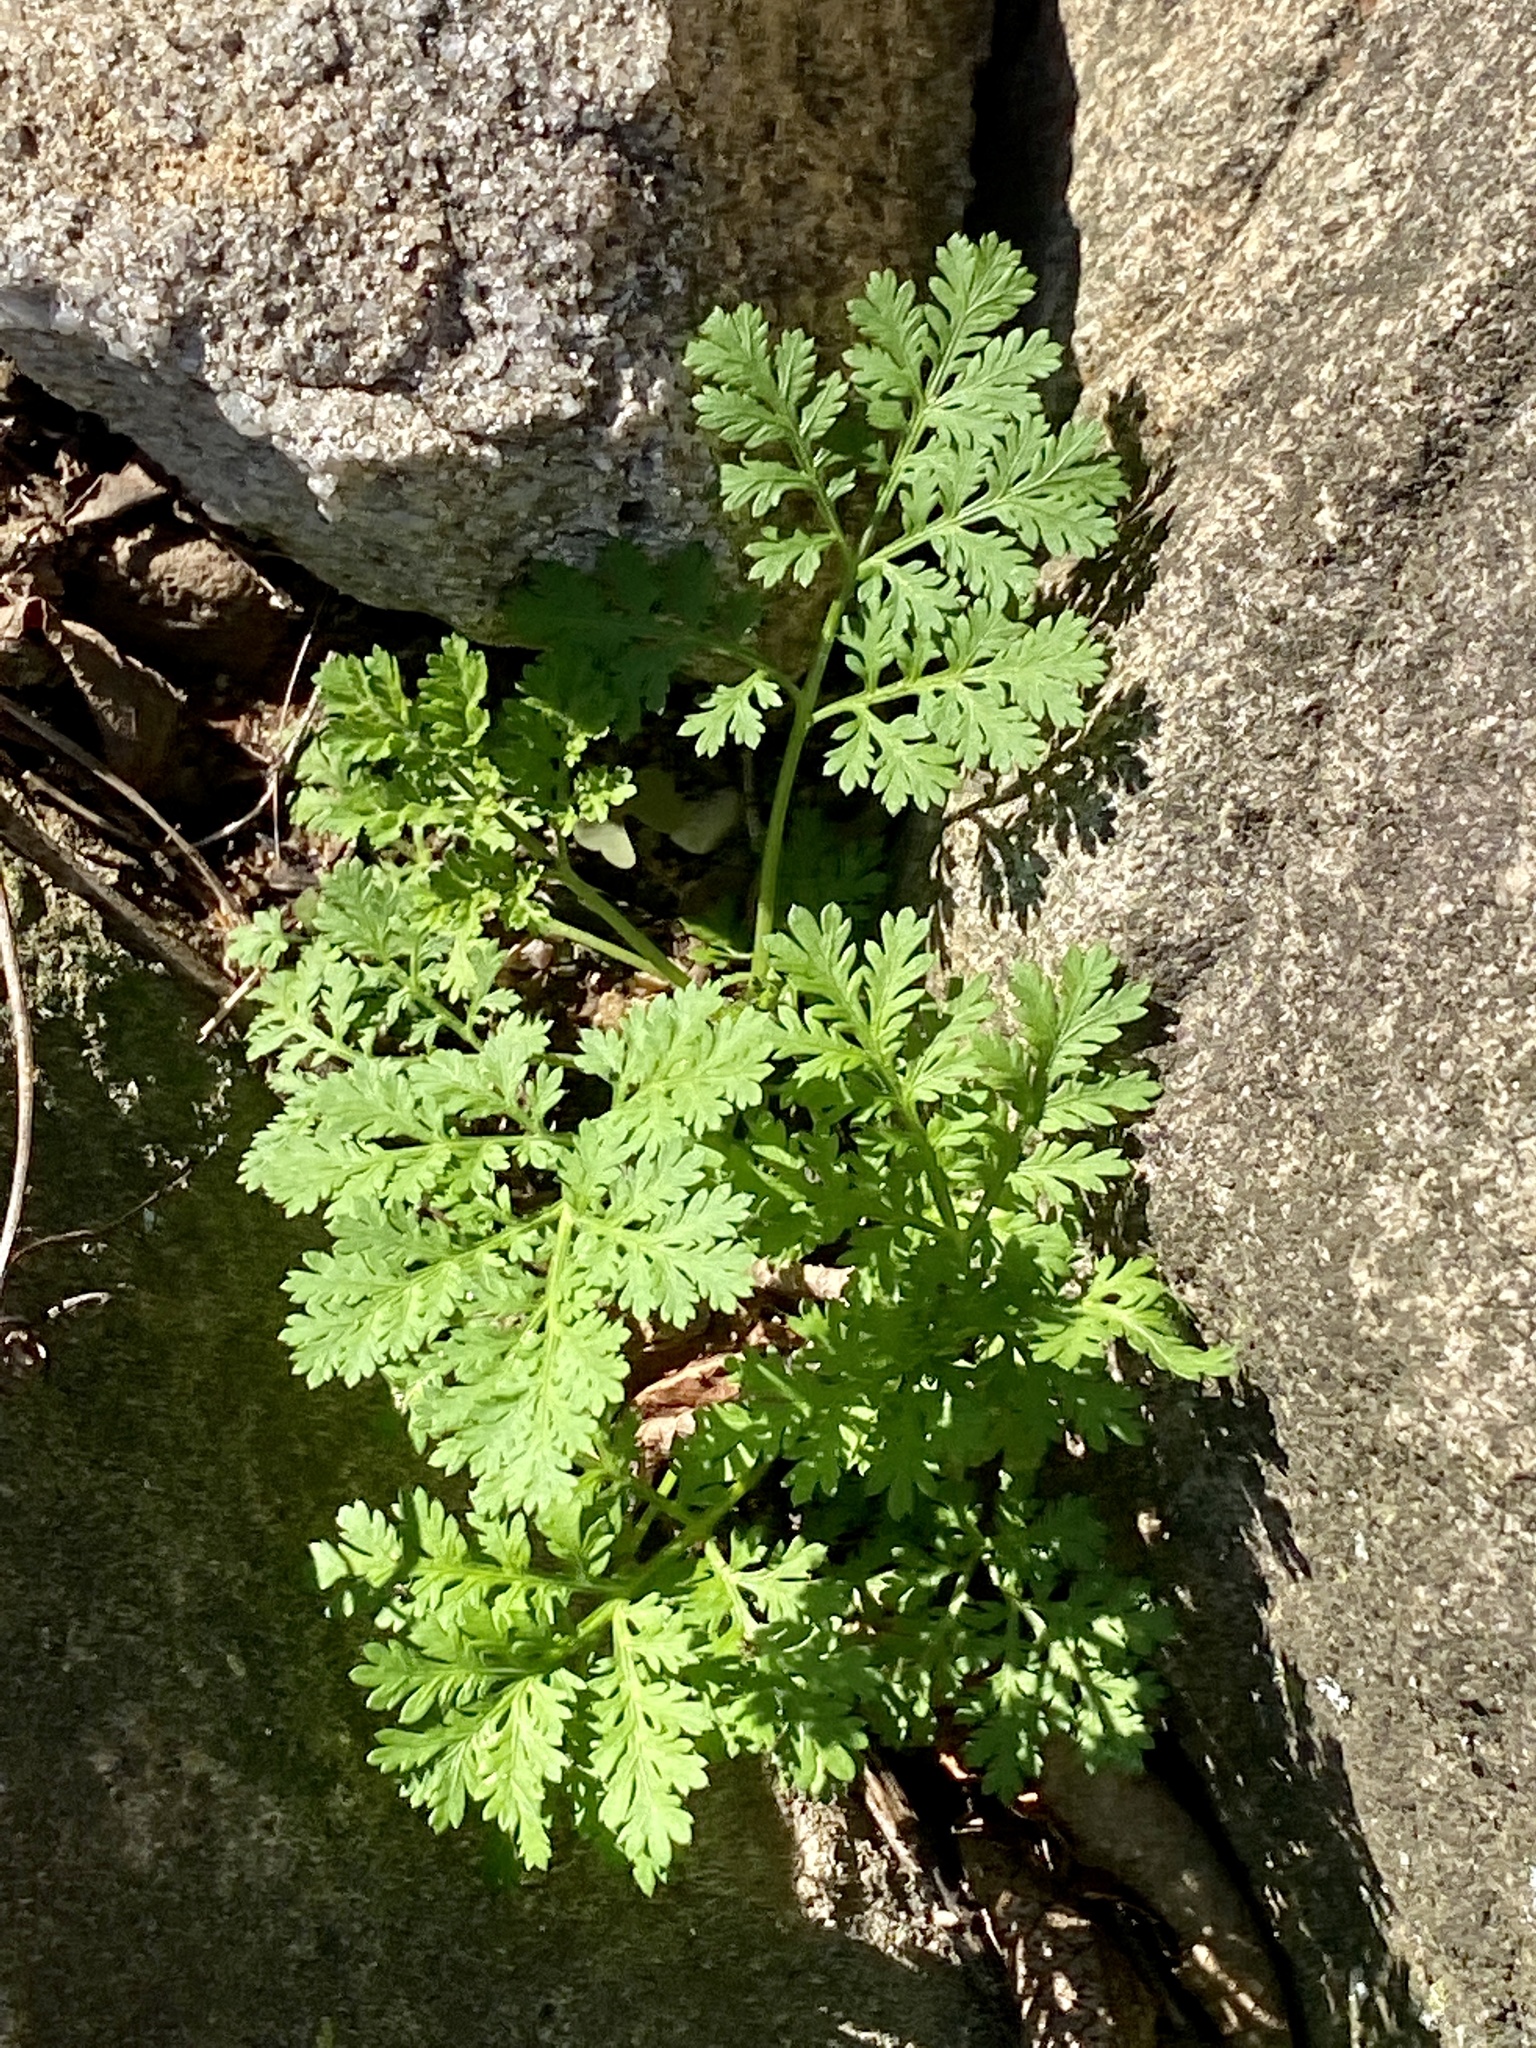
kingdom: Plantae
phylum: Tracheophyta
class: Magnoliopsida
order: Asterales
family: Asteraceae
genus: Artemisia
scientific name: Artemisia annua
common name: Sweet sagewort
